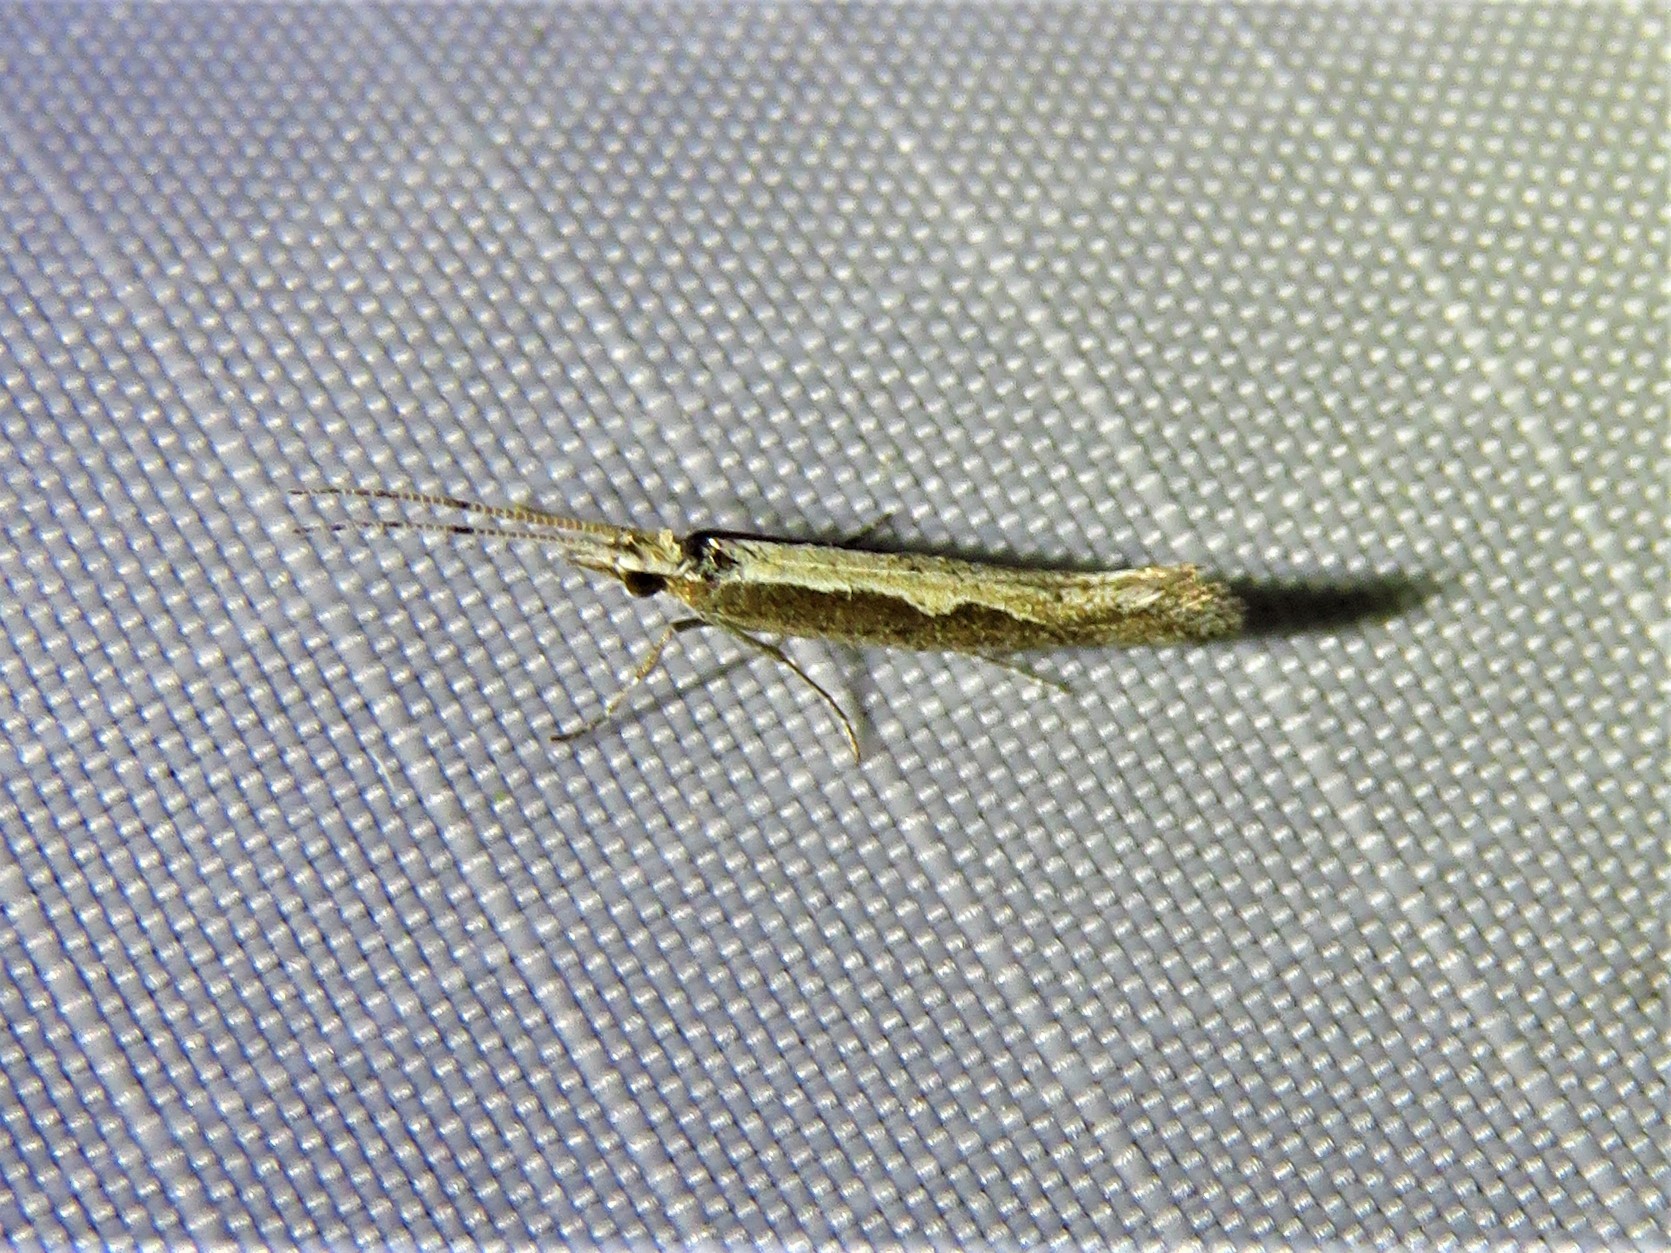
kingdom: Animalia
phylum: Arthropoda
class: Insecta
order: Lepidoptera
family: Plutellidae
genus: Plutella
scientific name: Plutella xylostella
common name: Diamond-back moth
